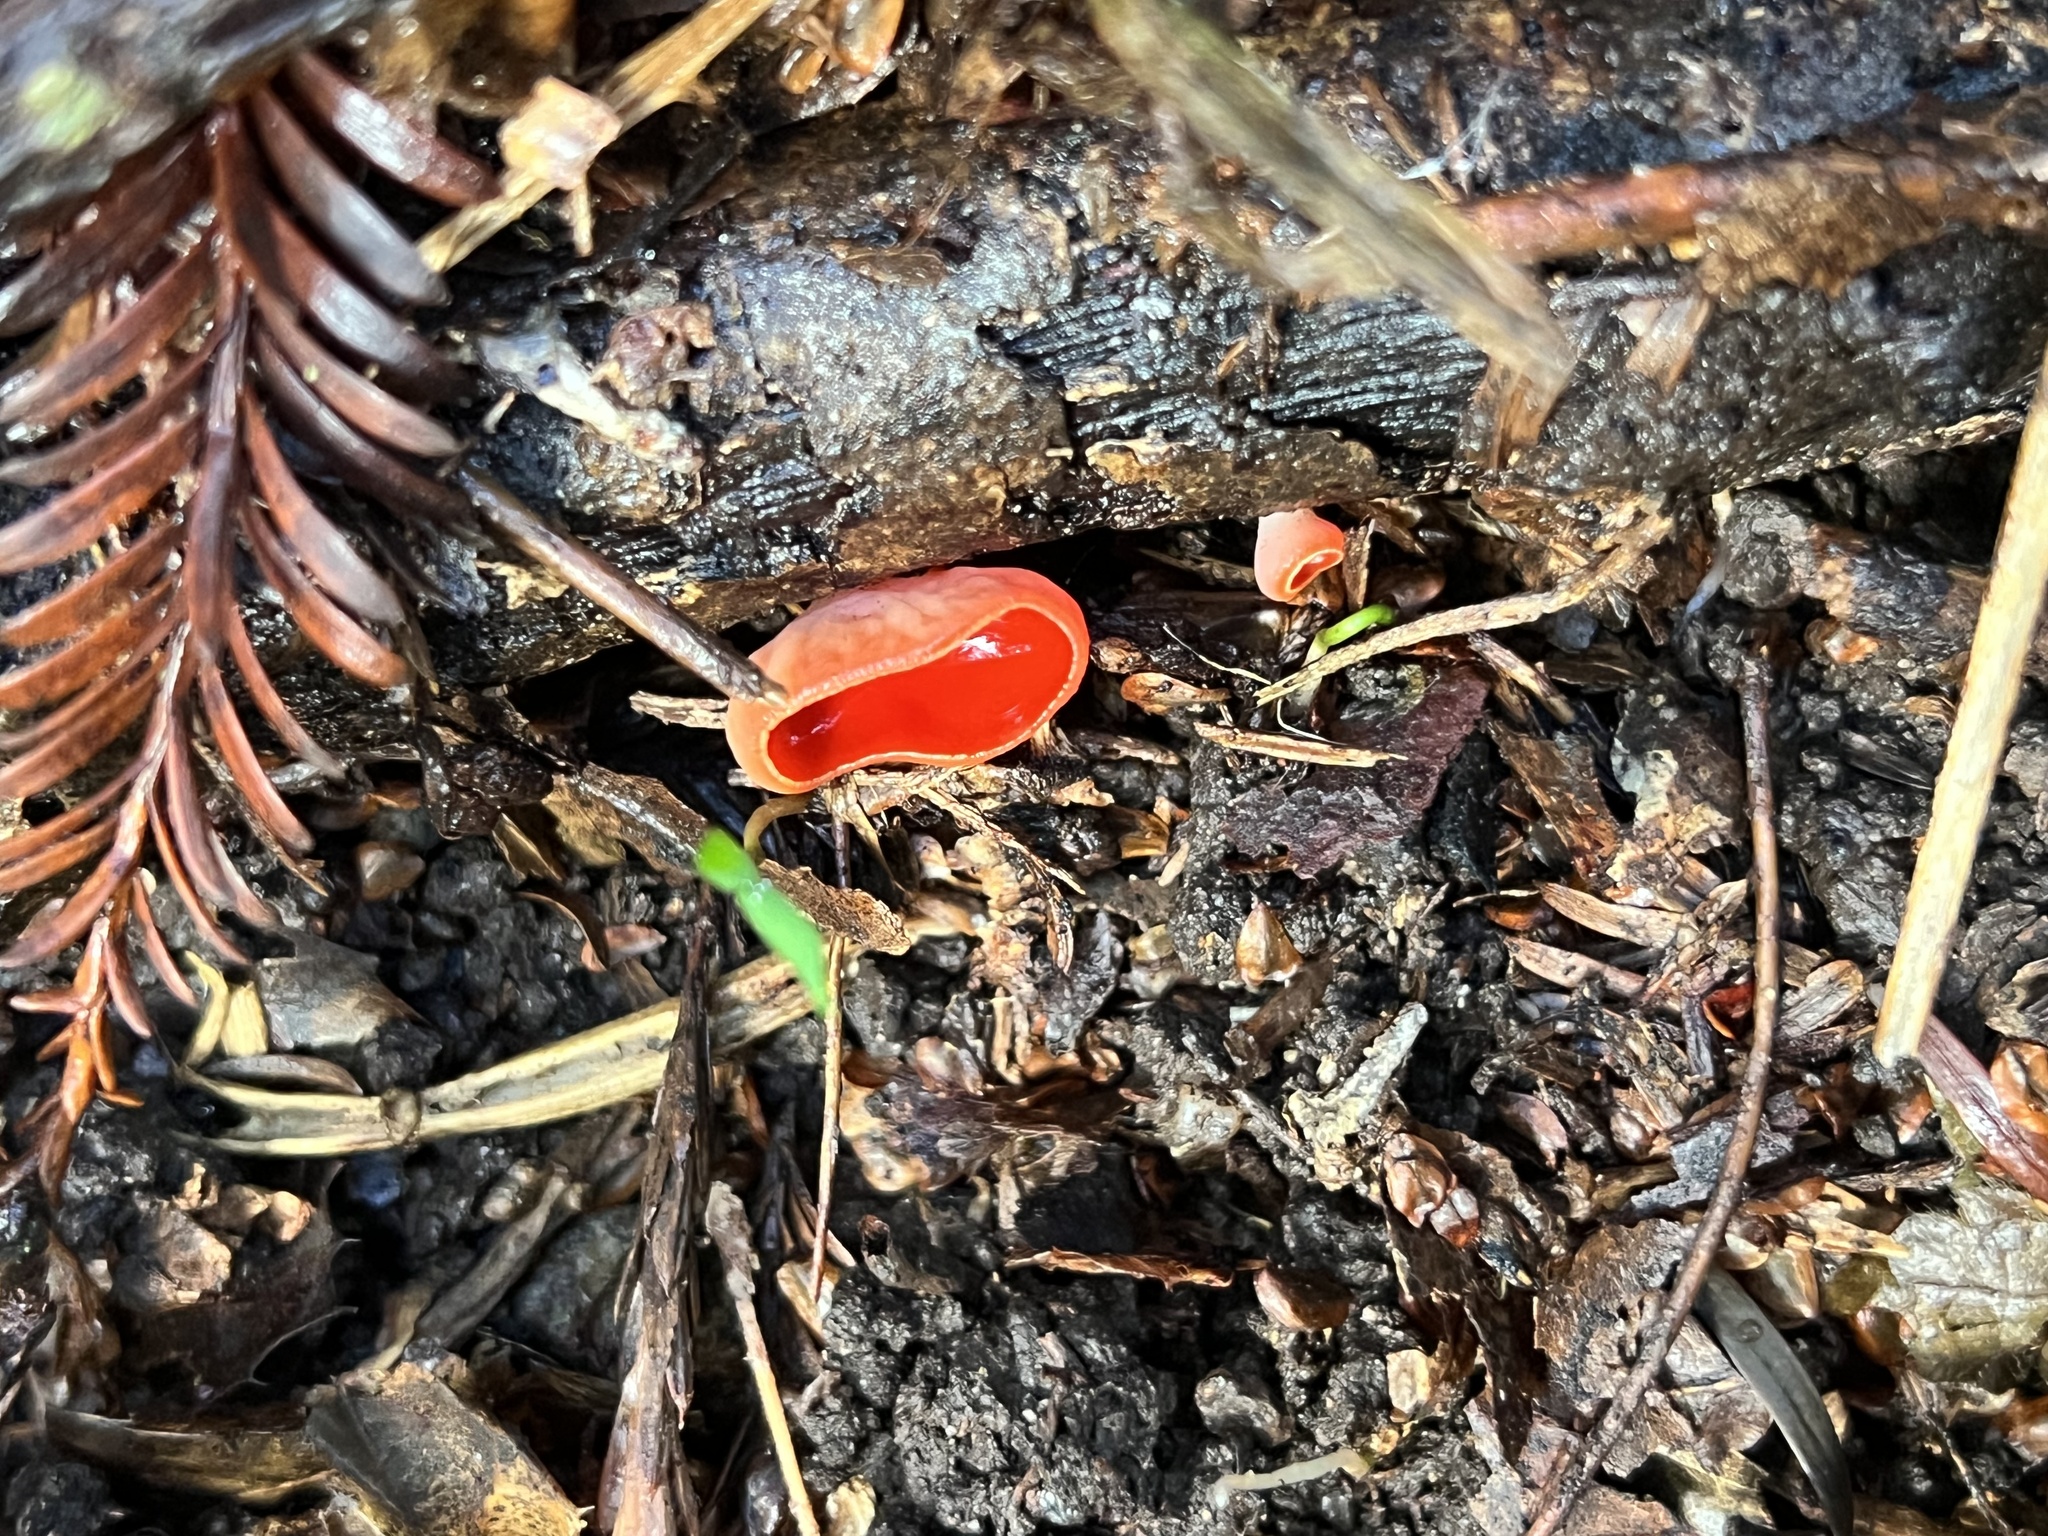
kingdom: Fungi
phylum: Ascomycota
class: Pezizomycetes
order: Pezizales
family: Sarcoscyphaceae
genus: Sarcoscypha
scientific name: Sarcoscypha coccinea
